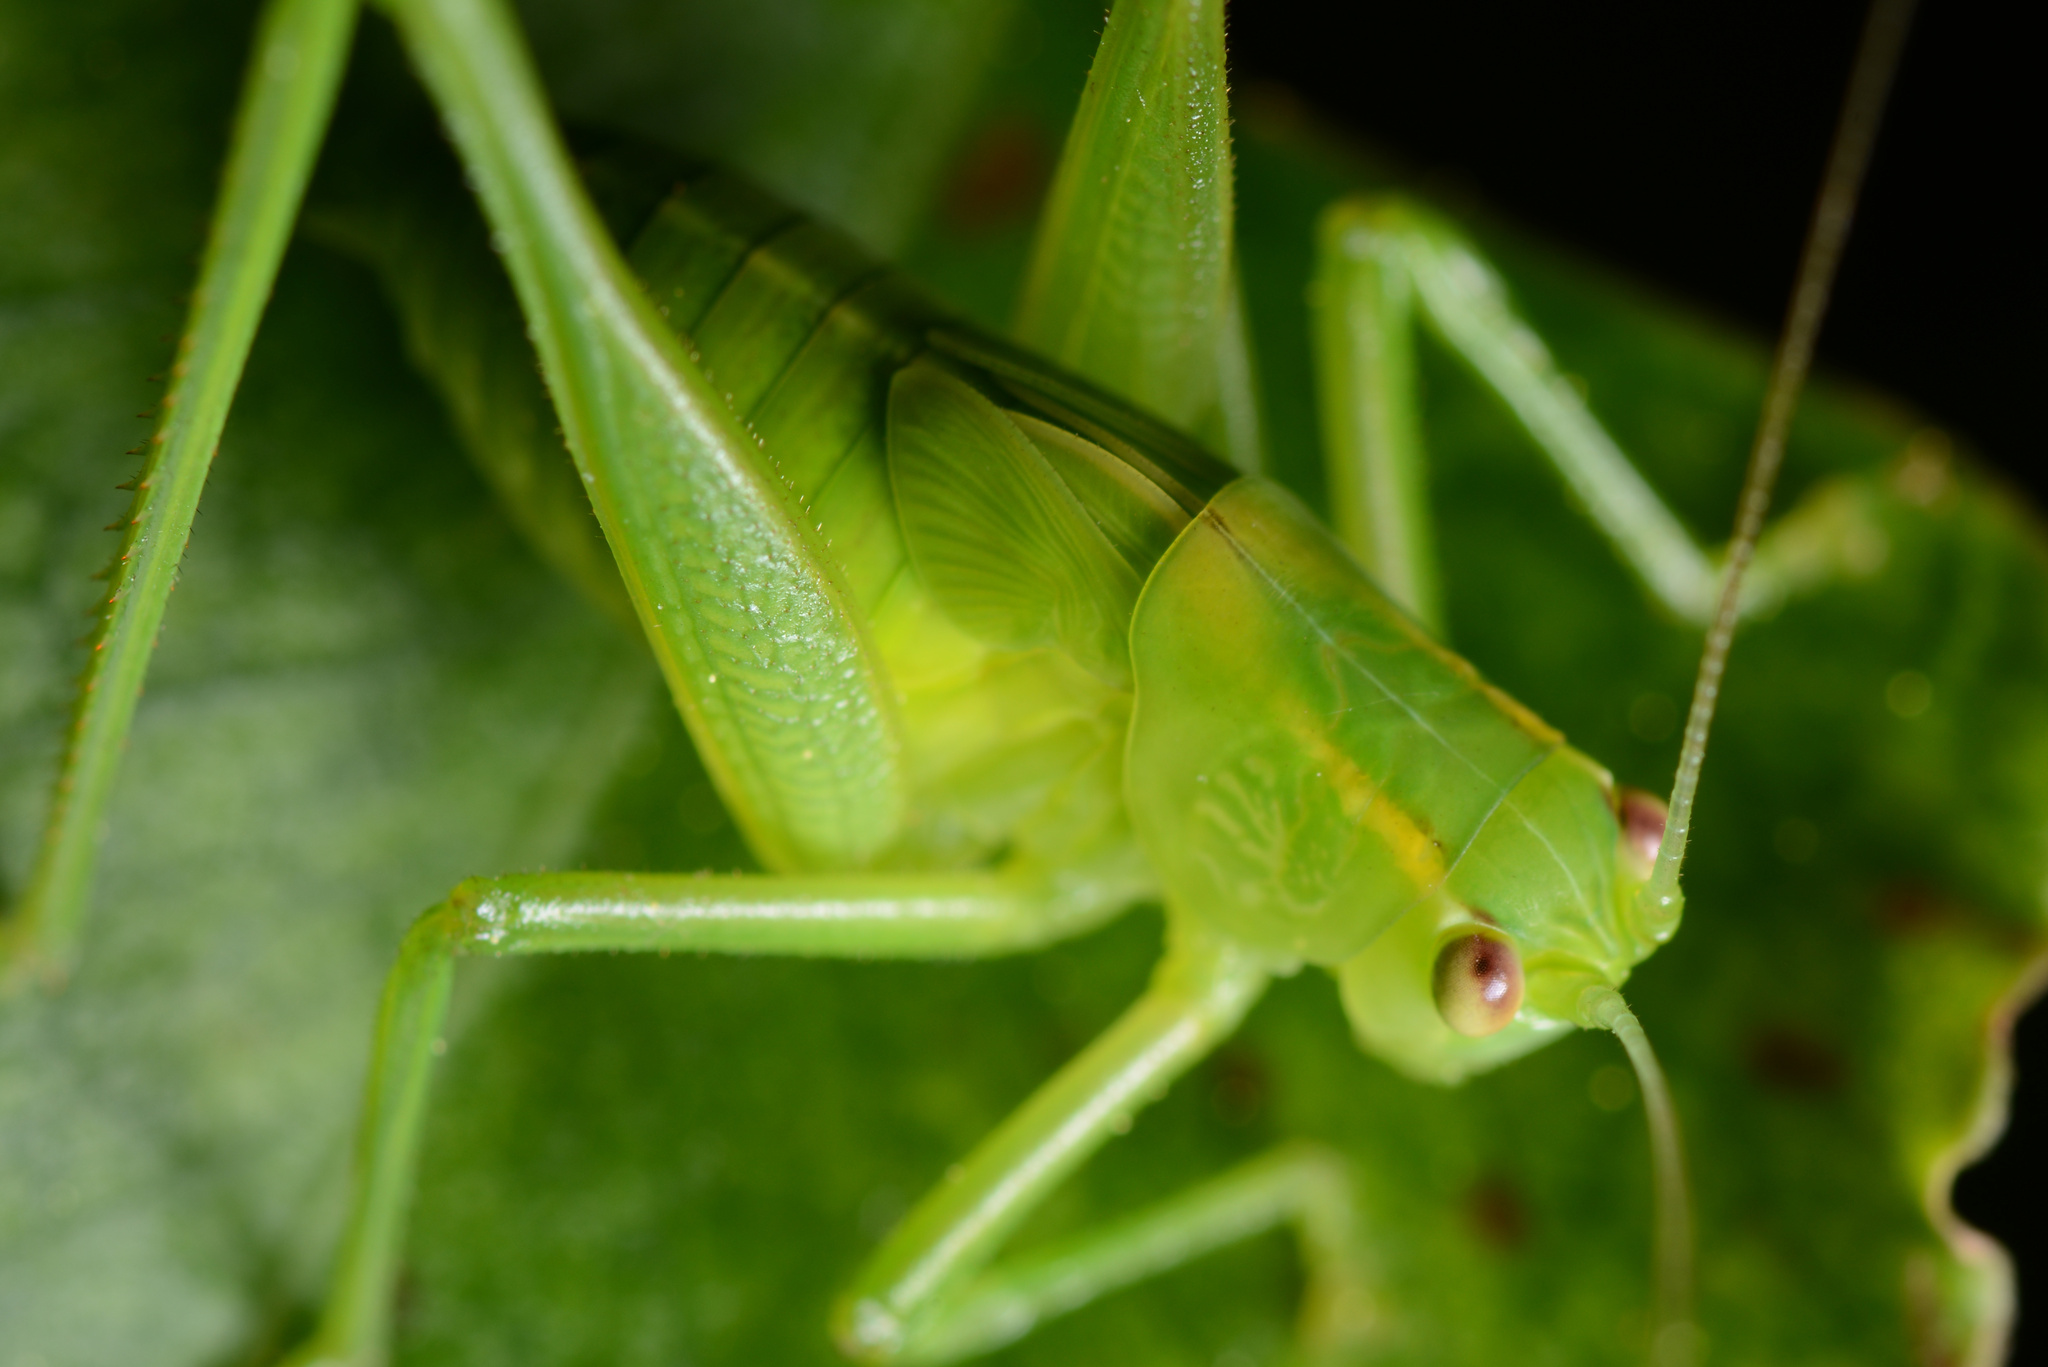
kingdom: Animalia
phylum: Arthropoda
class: Insecta
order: Orthoptera
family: Tettigoniidae
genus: Caedicia
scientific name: Caedicia simplex
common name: Common garden katydid
